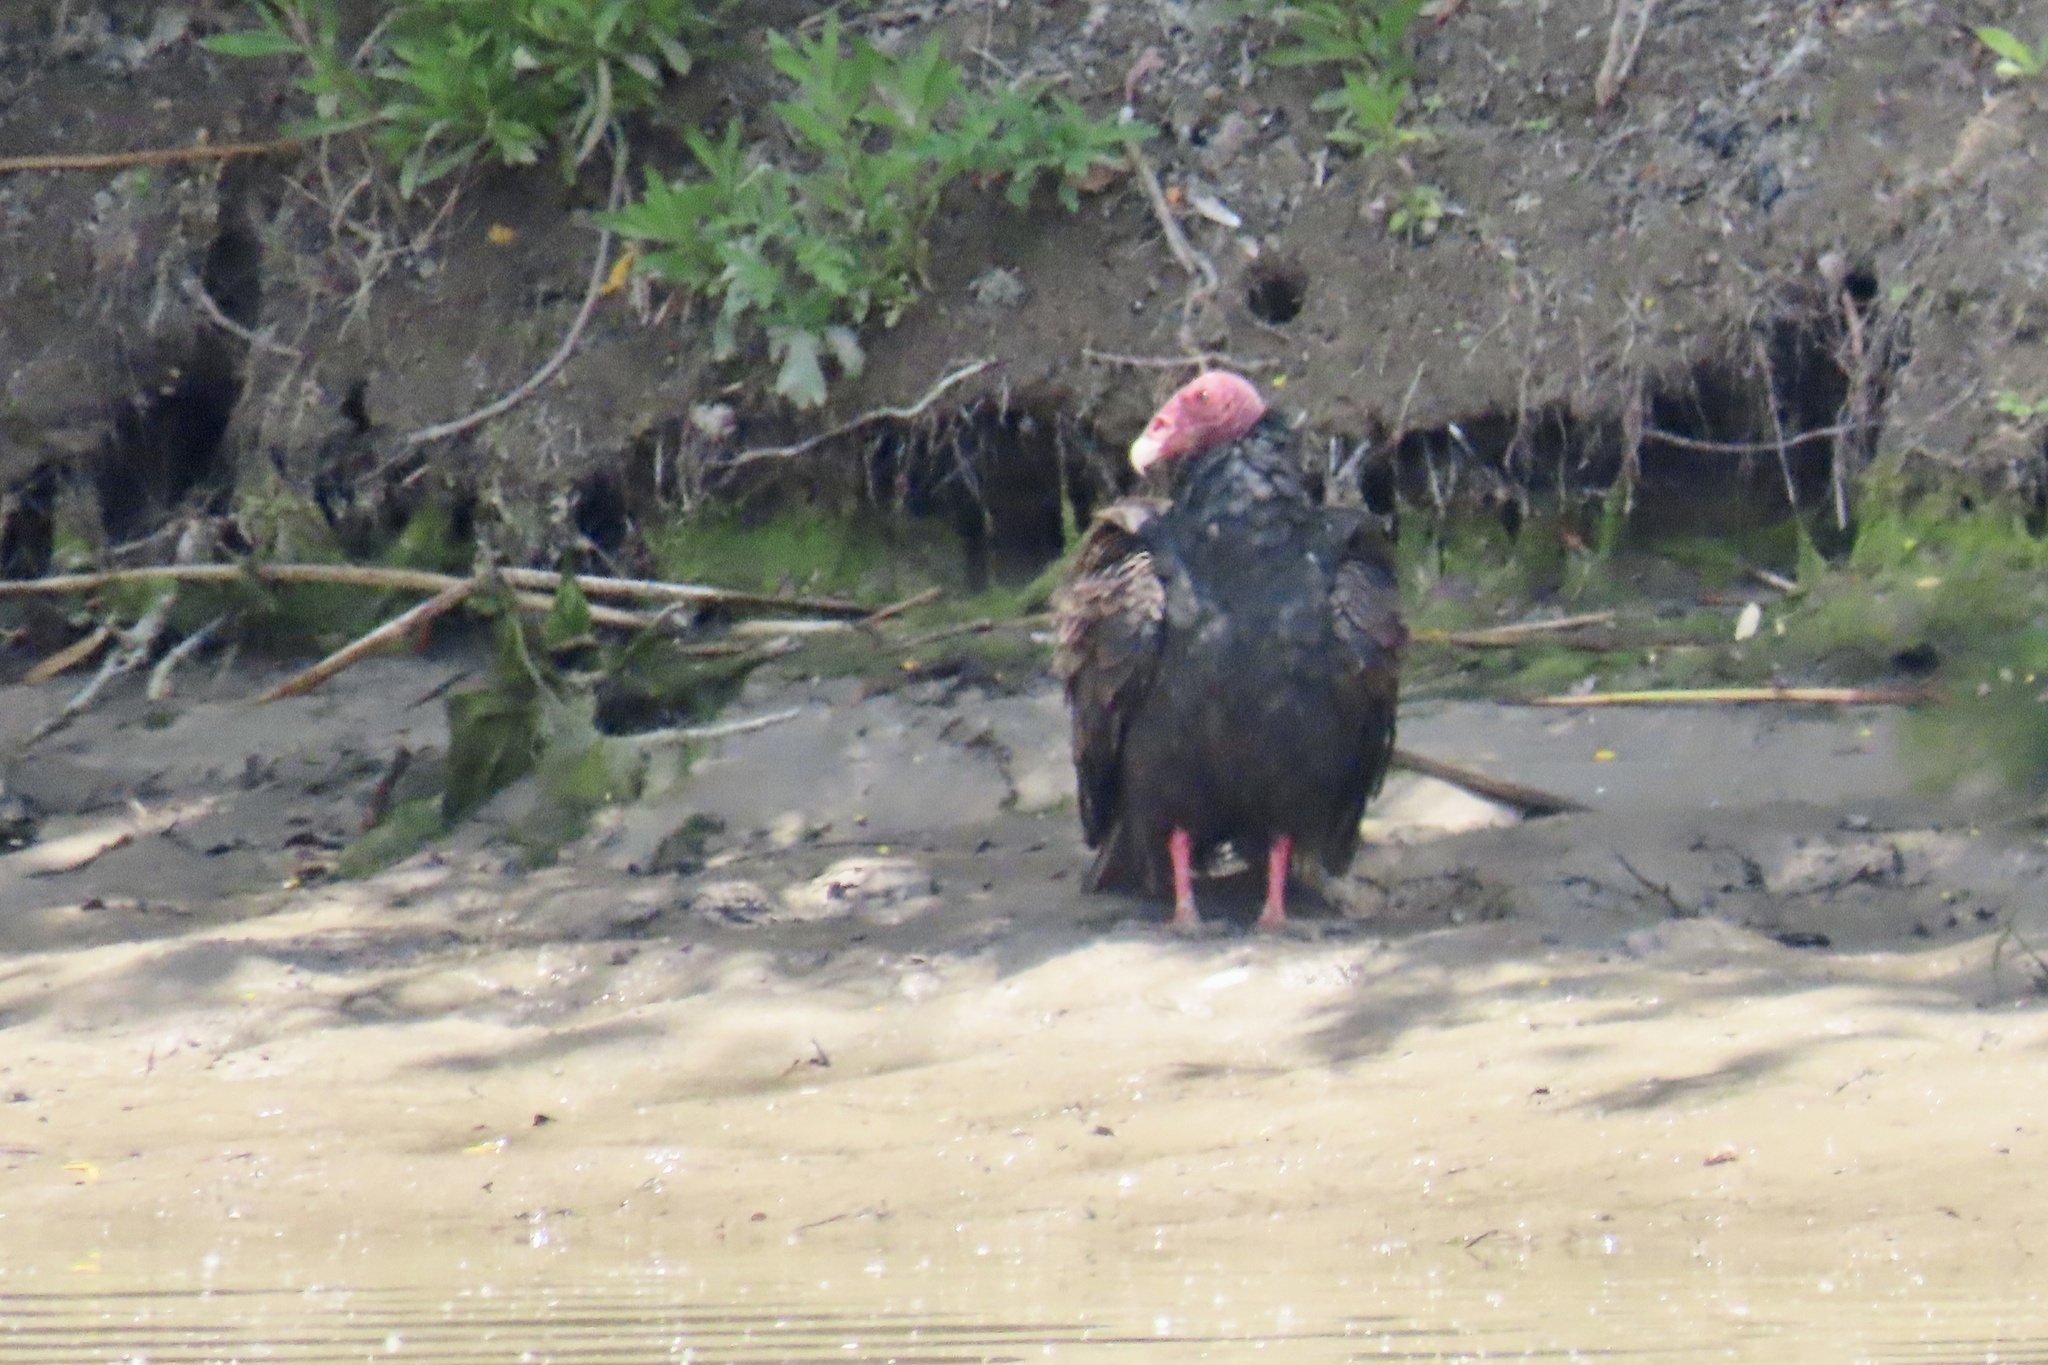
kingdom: Animalia
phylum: Chordata
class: Aves
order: Accipitriformes
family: Cathartidae
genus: Cathartes
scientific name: Cathartes aura
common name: Turkey vulture
